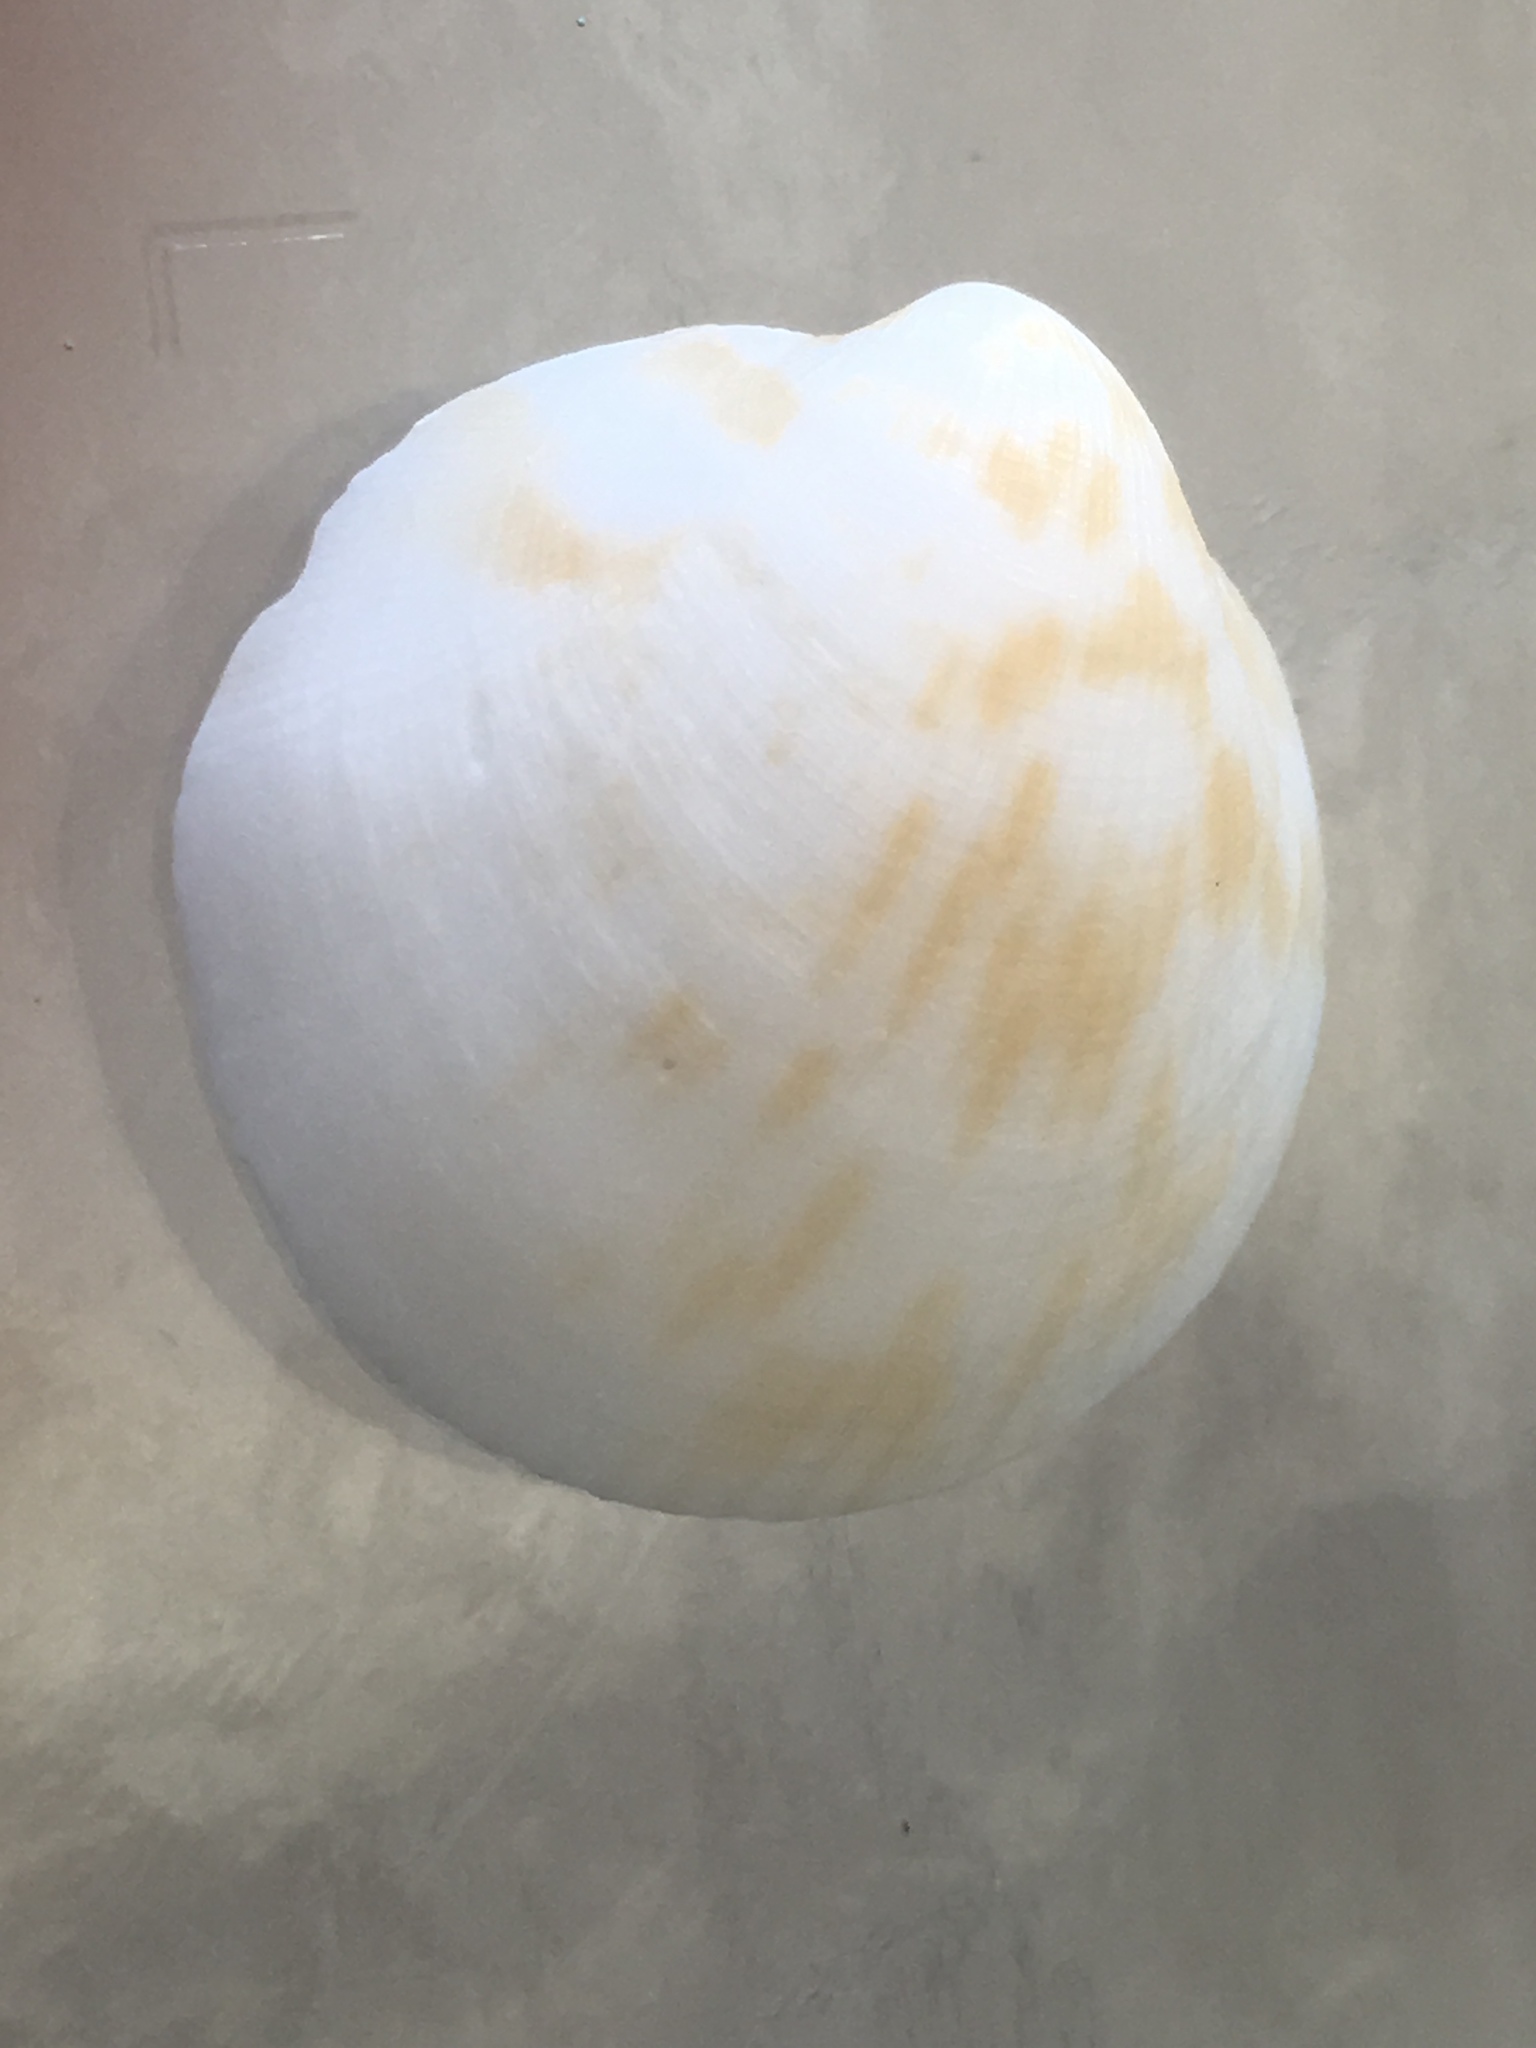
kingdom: Animalia
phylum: Mollusca
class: Bivalvia
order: Arcida
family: Glycymerididae
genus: Glycymeris
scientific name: Glycymeris americana
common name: American bittersweet
